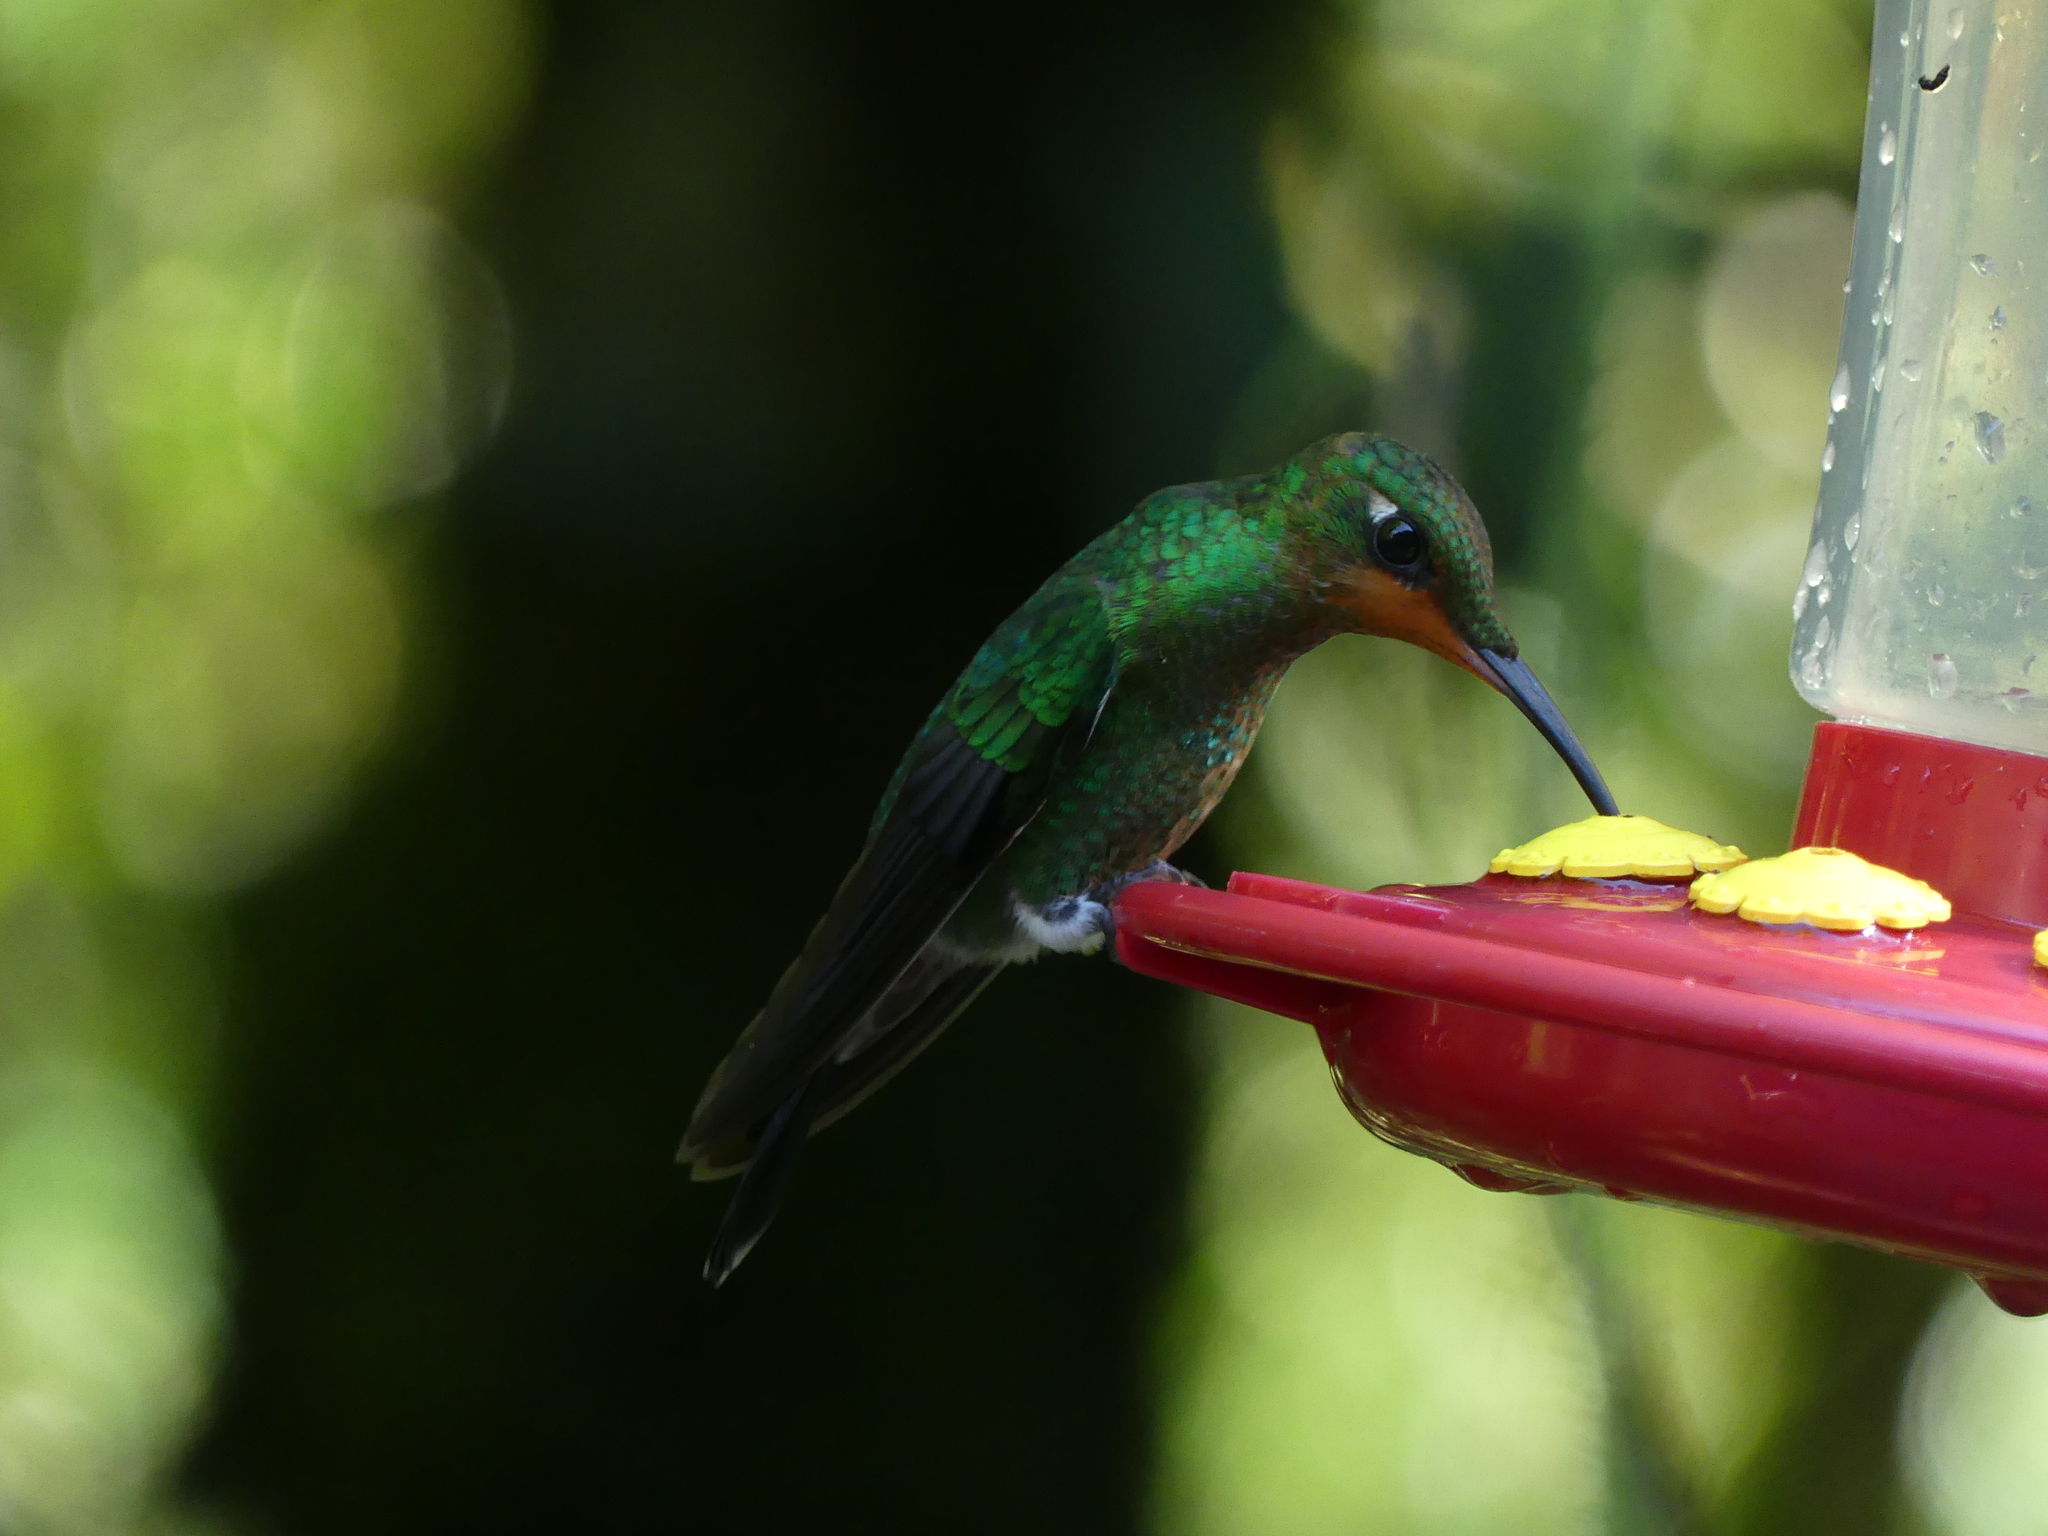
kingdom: Animalia
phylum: Chordata
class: Aves
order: Apodiformes
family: Trochilidae
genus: Heliodoxa
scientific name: Heliodoxa jacula
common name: Green-crowned brilliant
